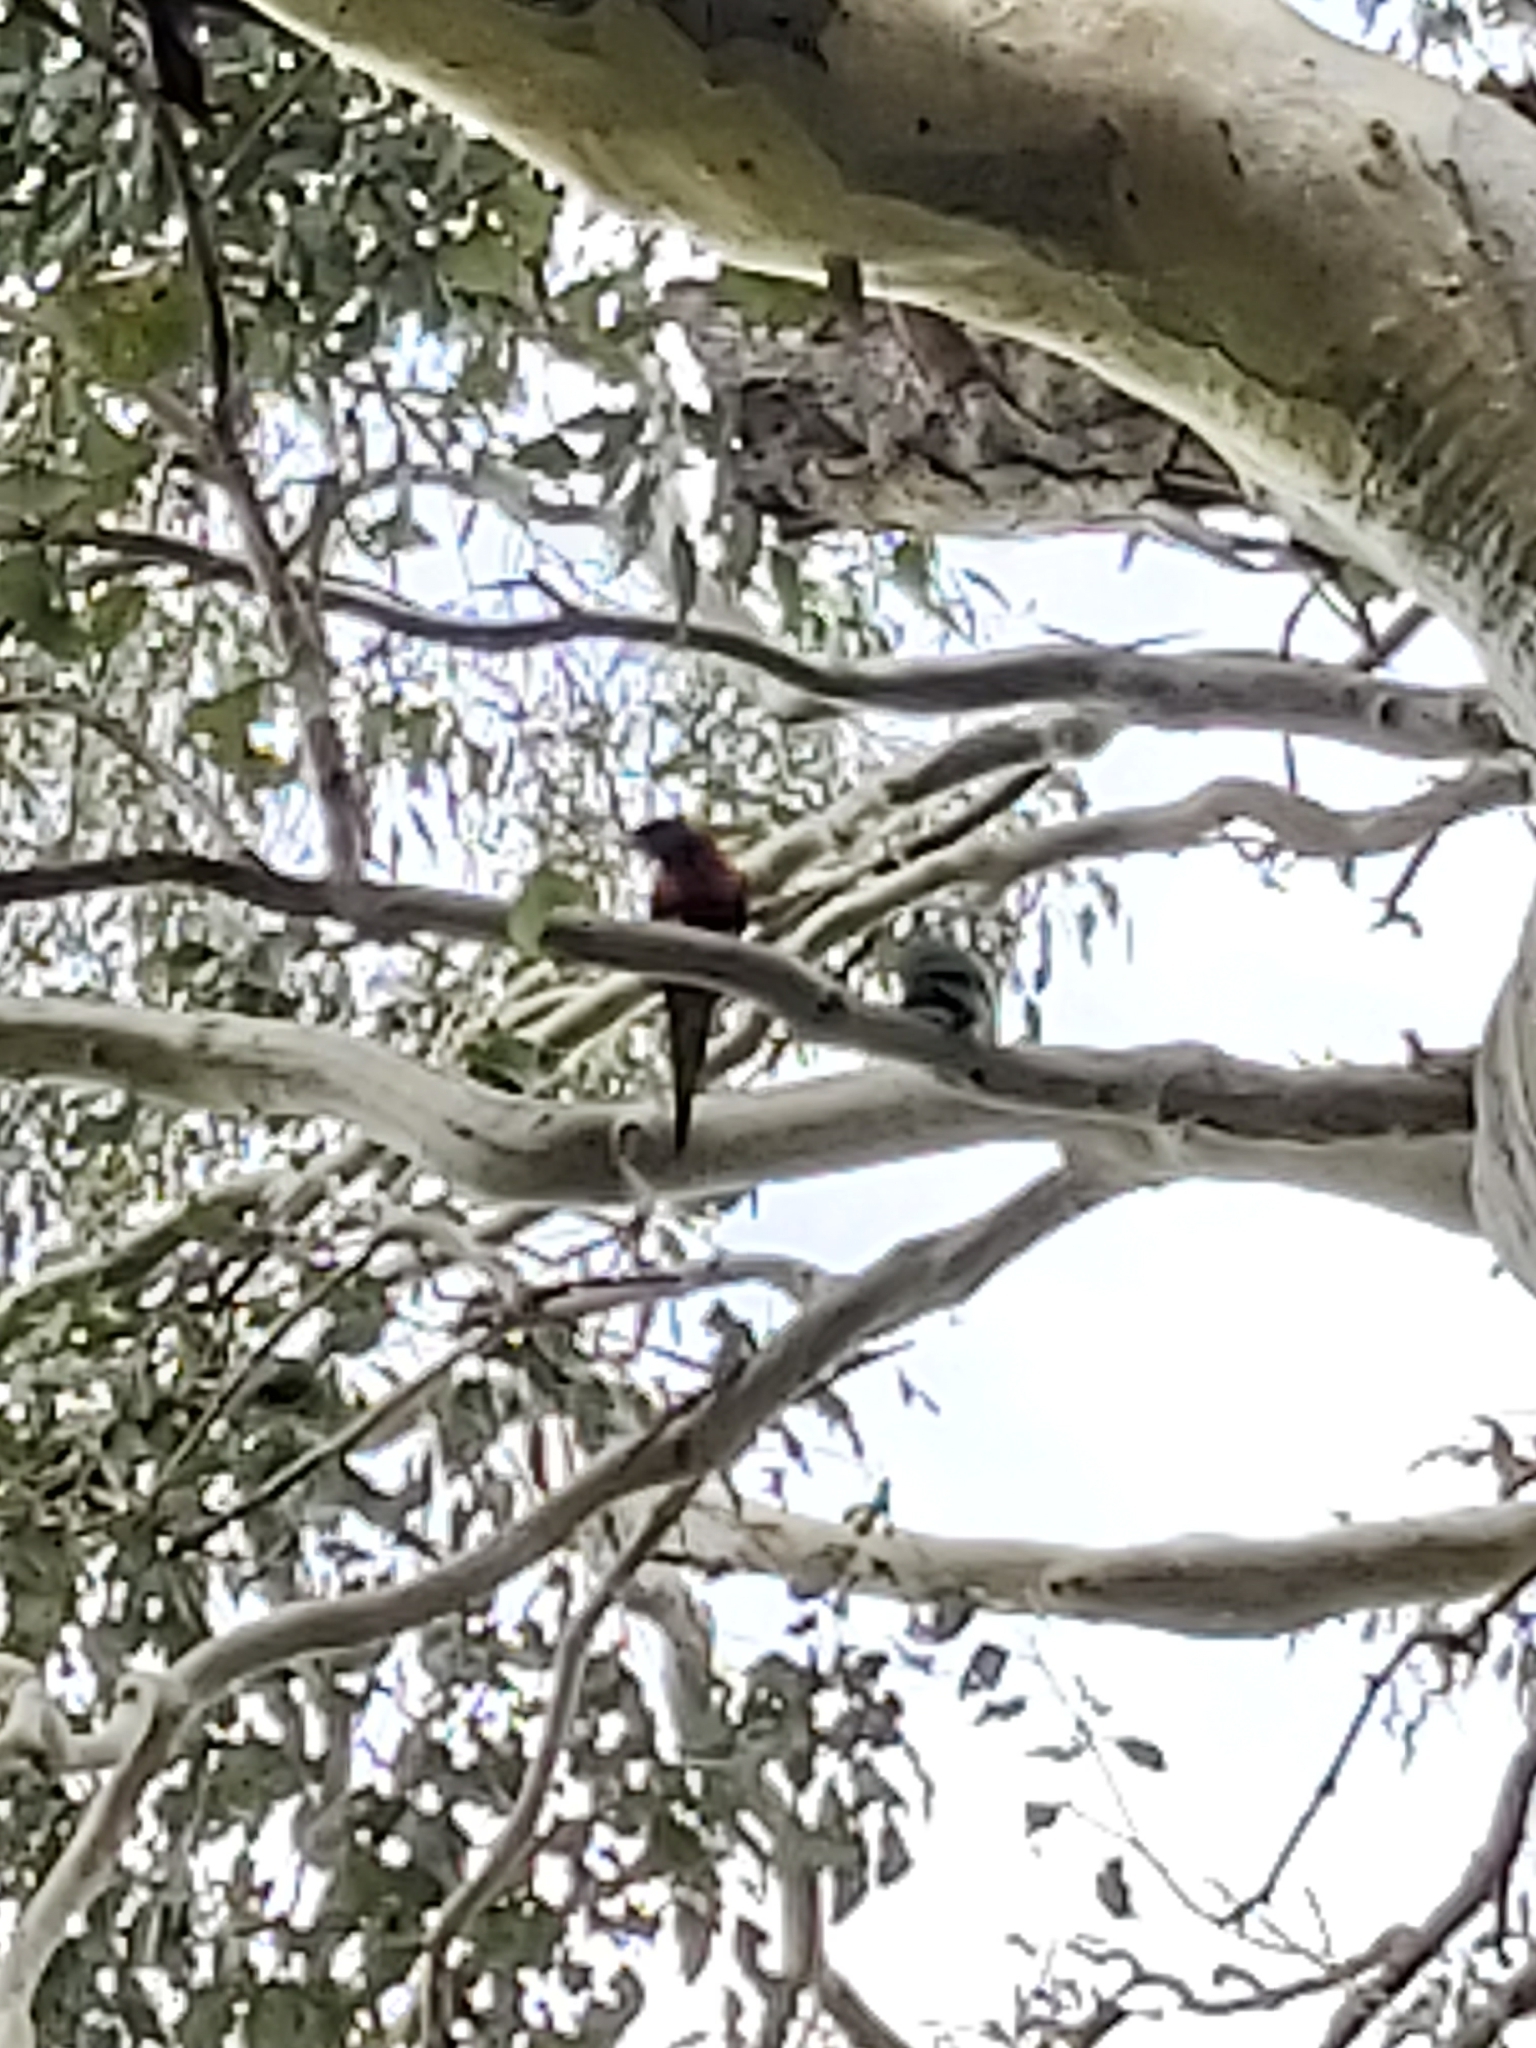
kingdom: Animalia
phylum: Chordata
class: Aves
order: Psittaciformes
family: Psittacidae
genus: Trichoglossus
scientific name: Trichoglossus haematodus
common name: Coconut lorikeet
